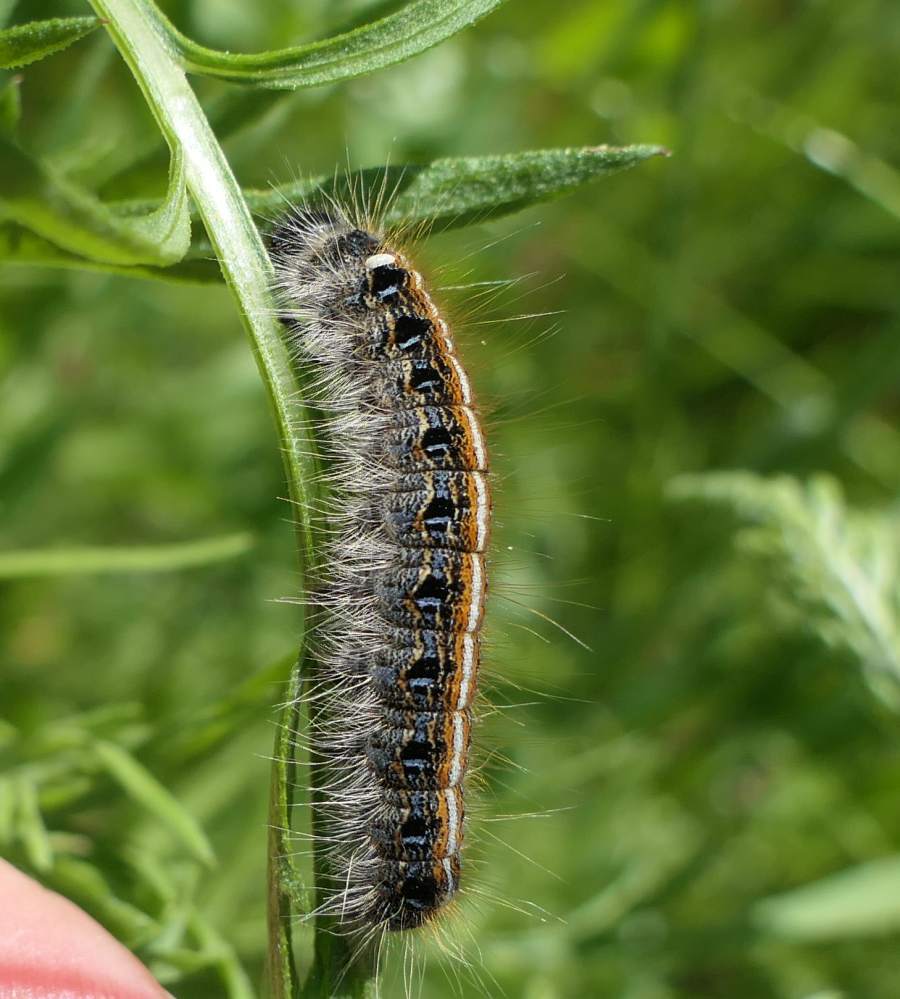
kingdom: Animalia
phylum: Arthropoda
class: Insecta
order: Lepidoptera
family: Lasiocampidae
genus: Malacosoma
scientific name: Malacosoma americana
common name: Eastern tent caterpillar moth
